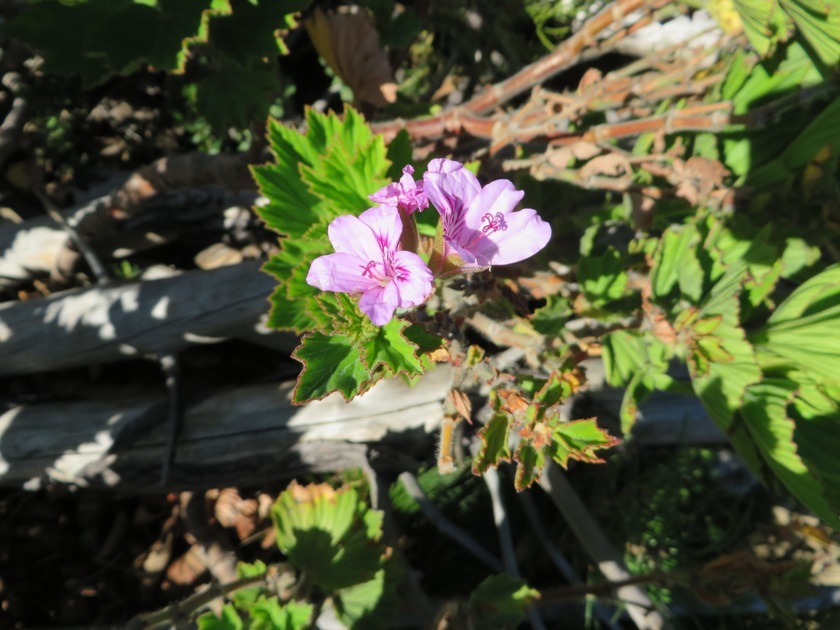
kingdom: Plantae
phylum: Tracheophyta
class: Magnoliopsida
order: Geraniales
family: Geraniaceae
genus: Pelargonium
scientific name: Pelargonium cucullatum
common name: Tree pelargonium
